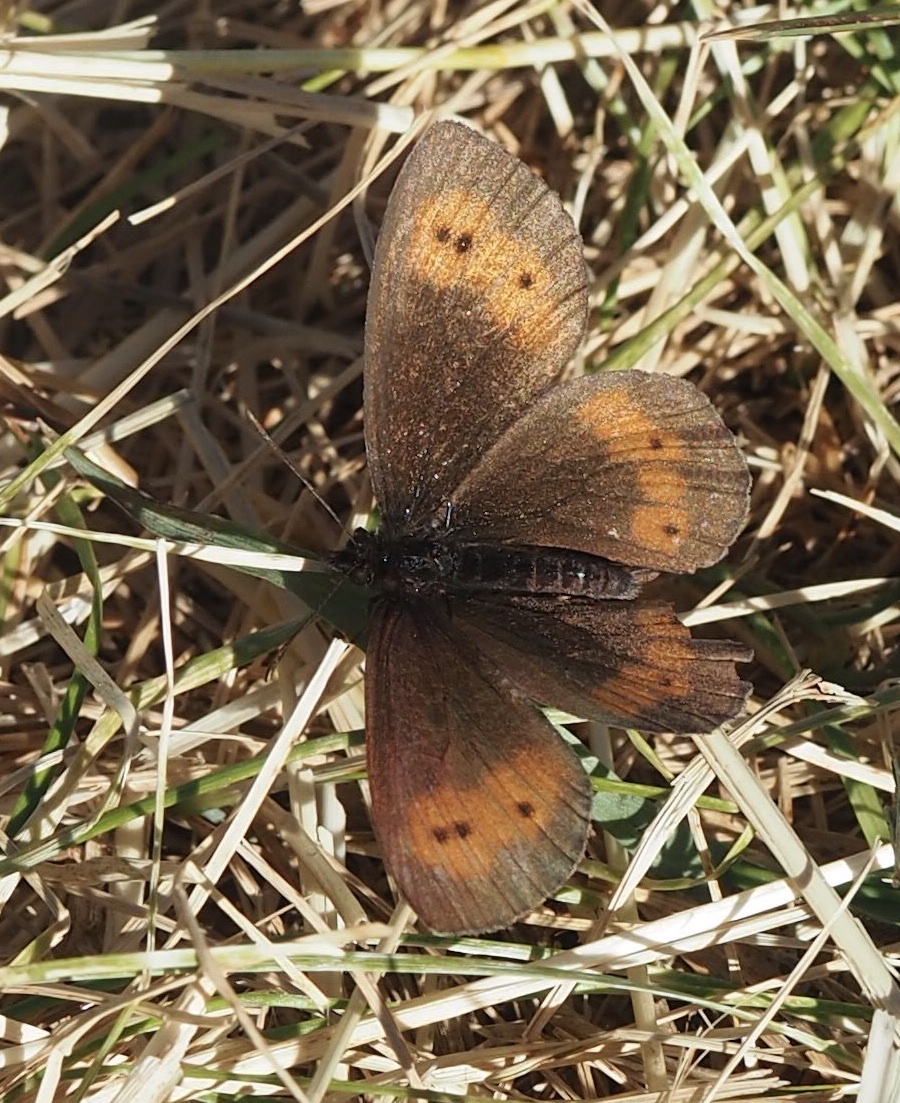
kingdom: Animalia
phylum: Arthropoda
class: Insecta
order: Lepidoptera
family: Nymphalidae
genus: Erebia
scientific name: Erebia euryale
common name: Large ringlet
